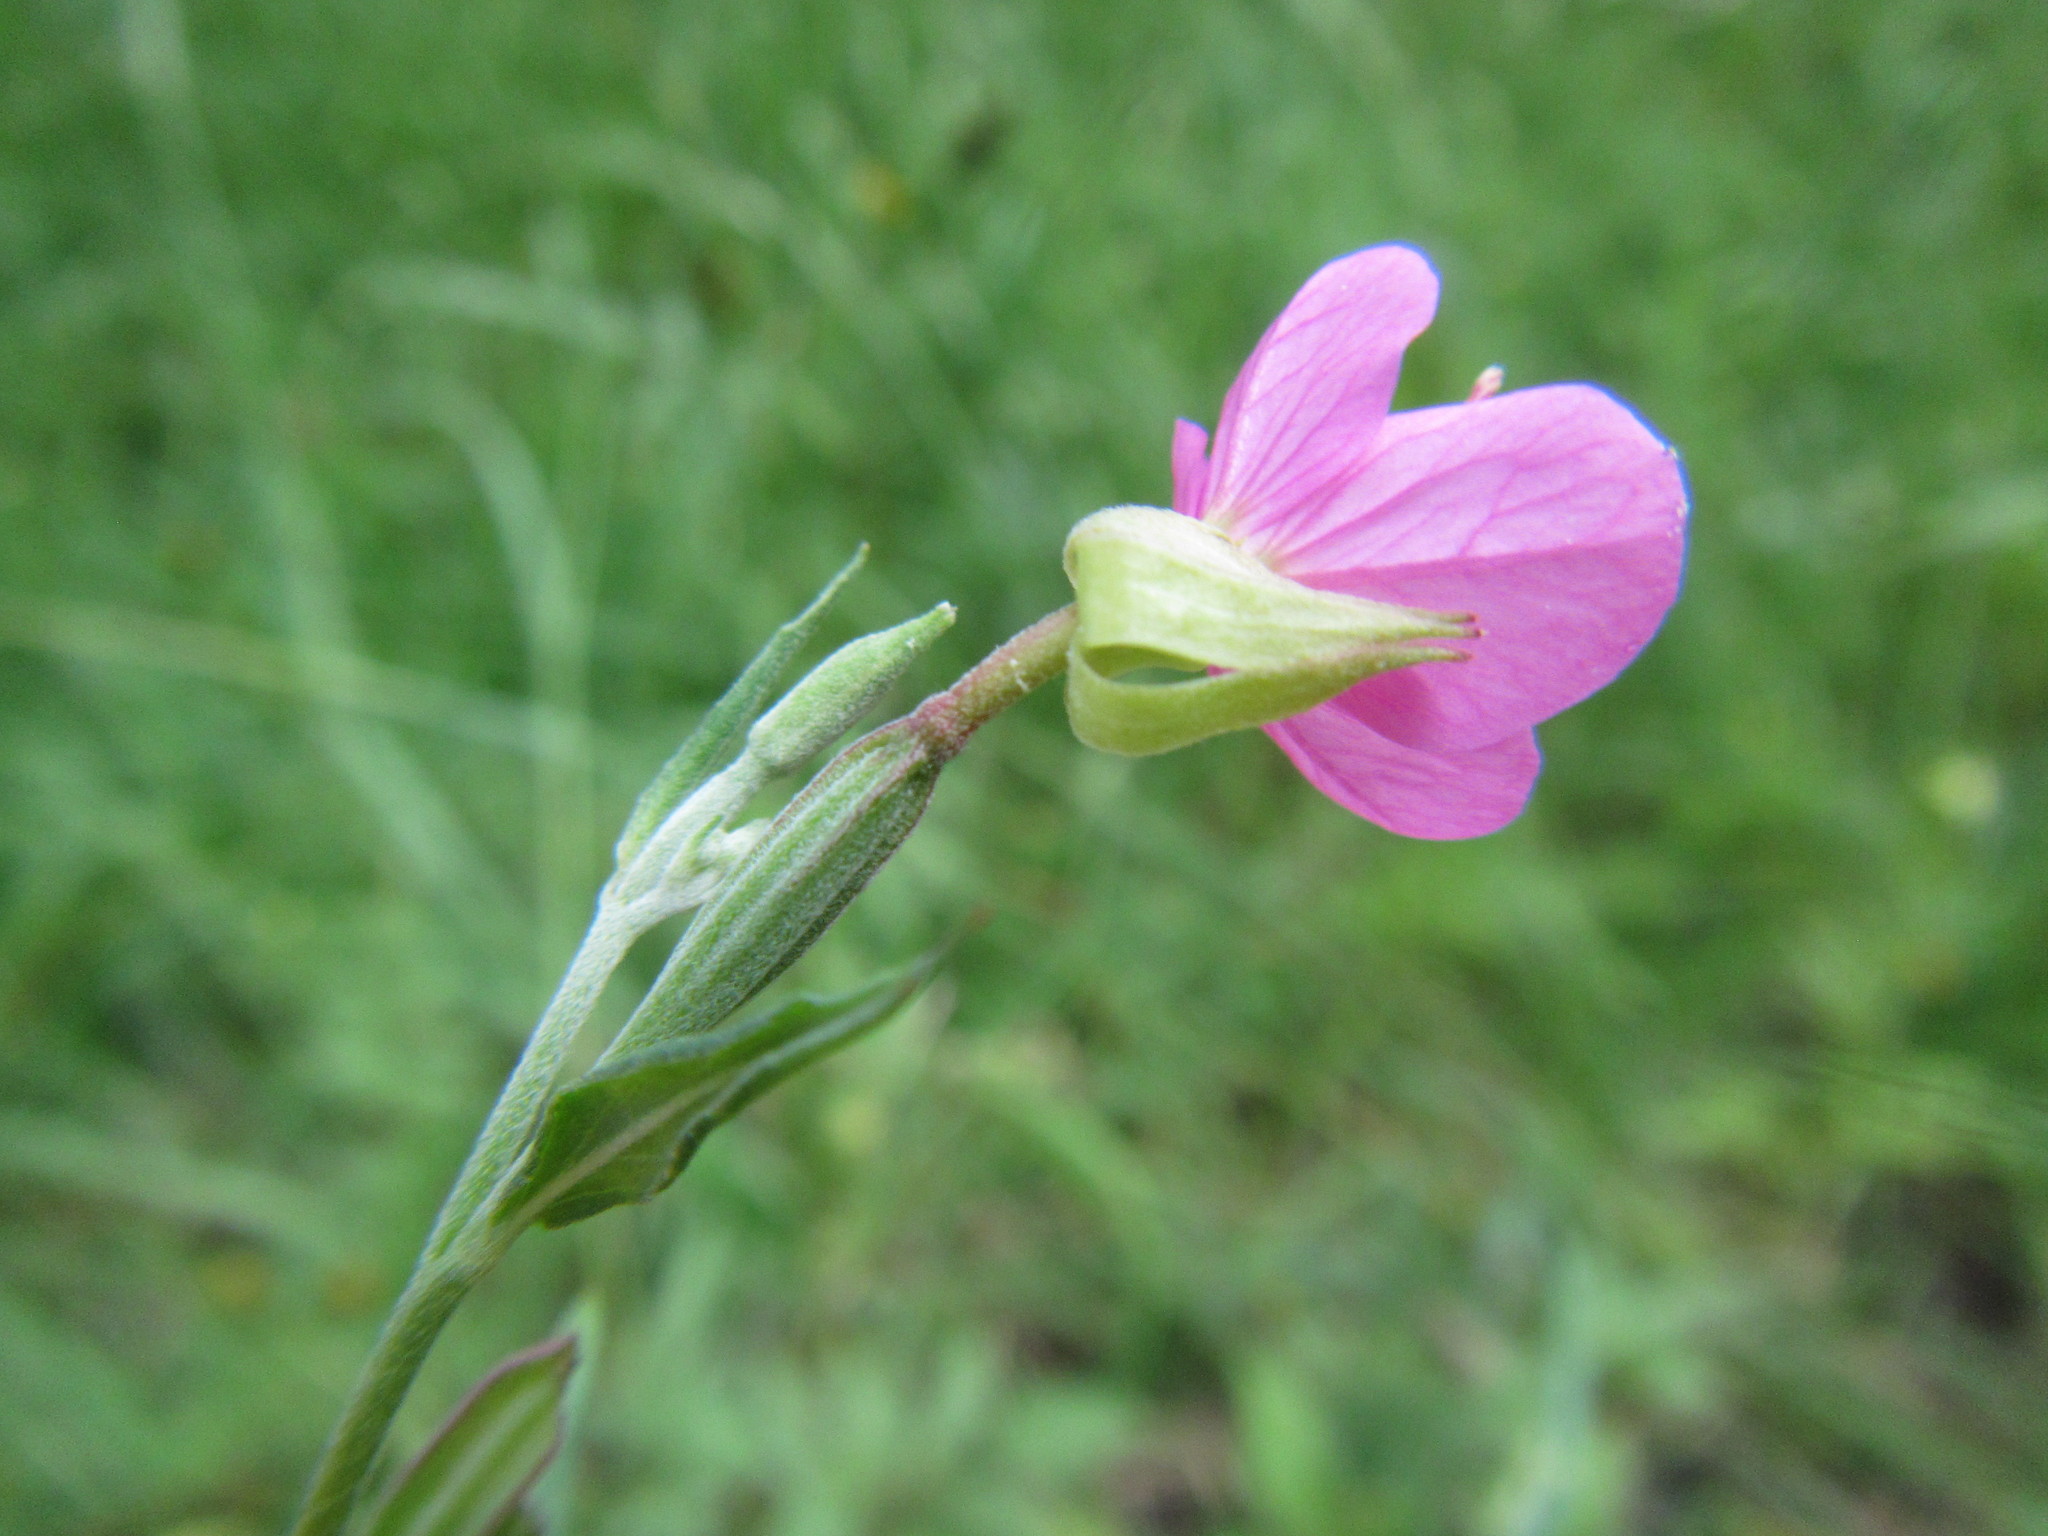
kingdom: Plantae
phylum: Tracheophyta
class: Magnoliopsida
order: Myrtales
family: Onagraceae
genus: Oenothera
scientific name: Oenothera rosea
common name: Rosy evening-primrose
